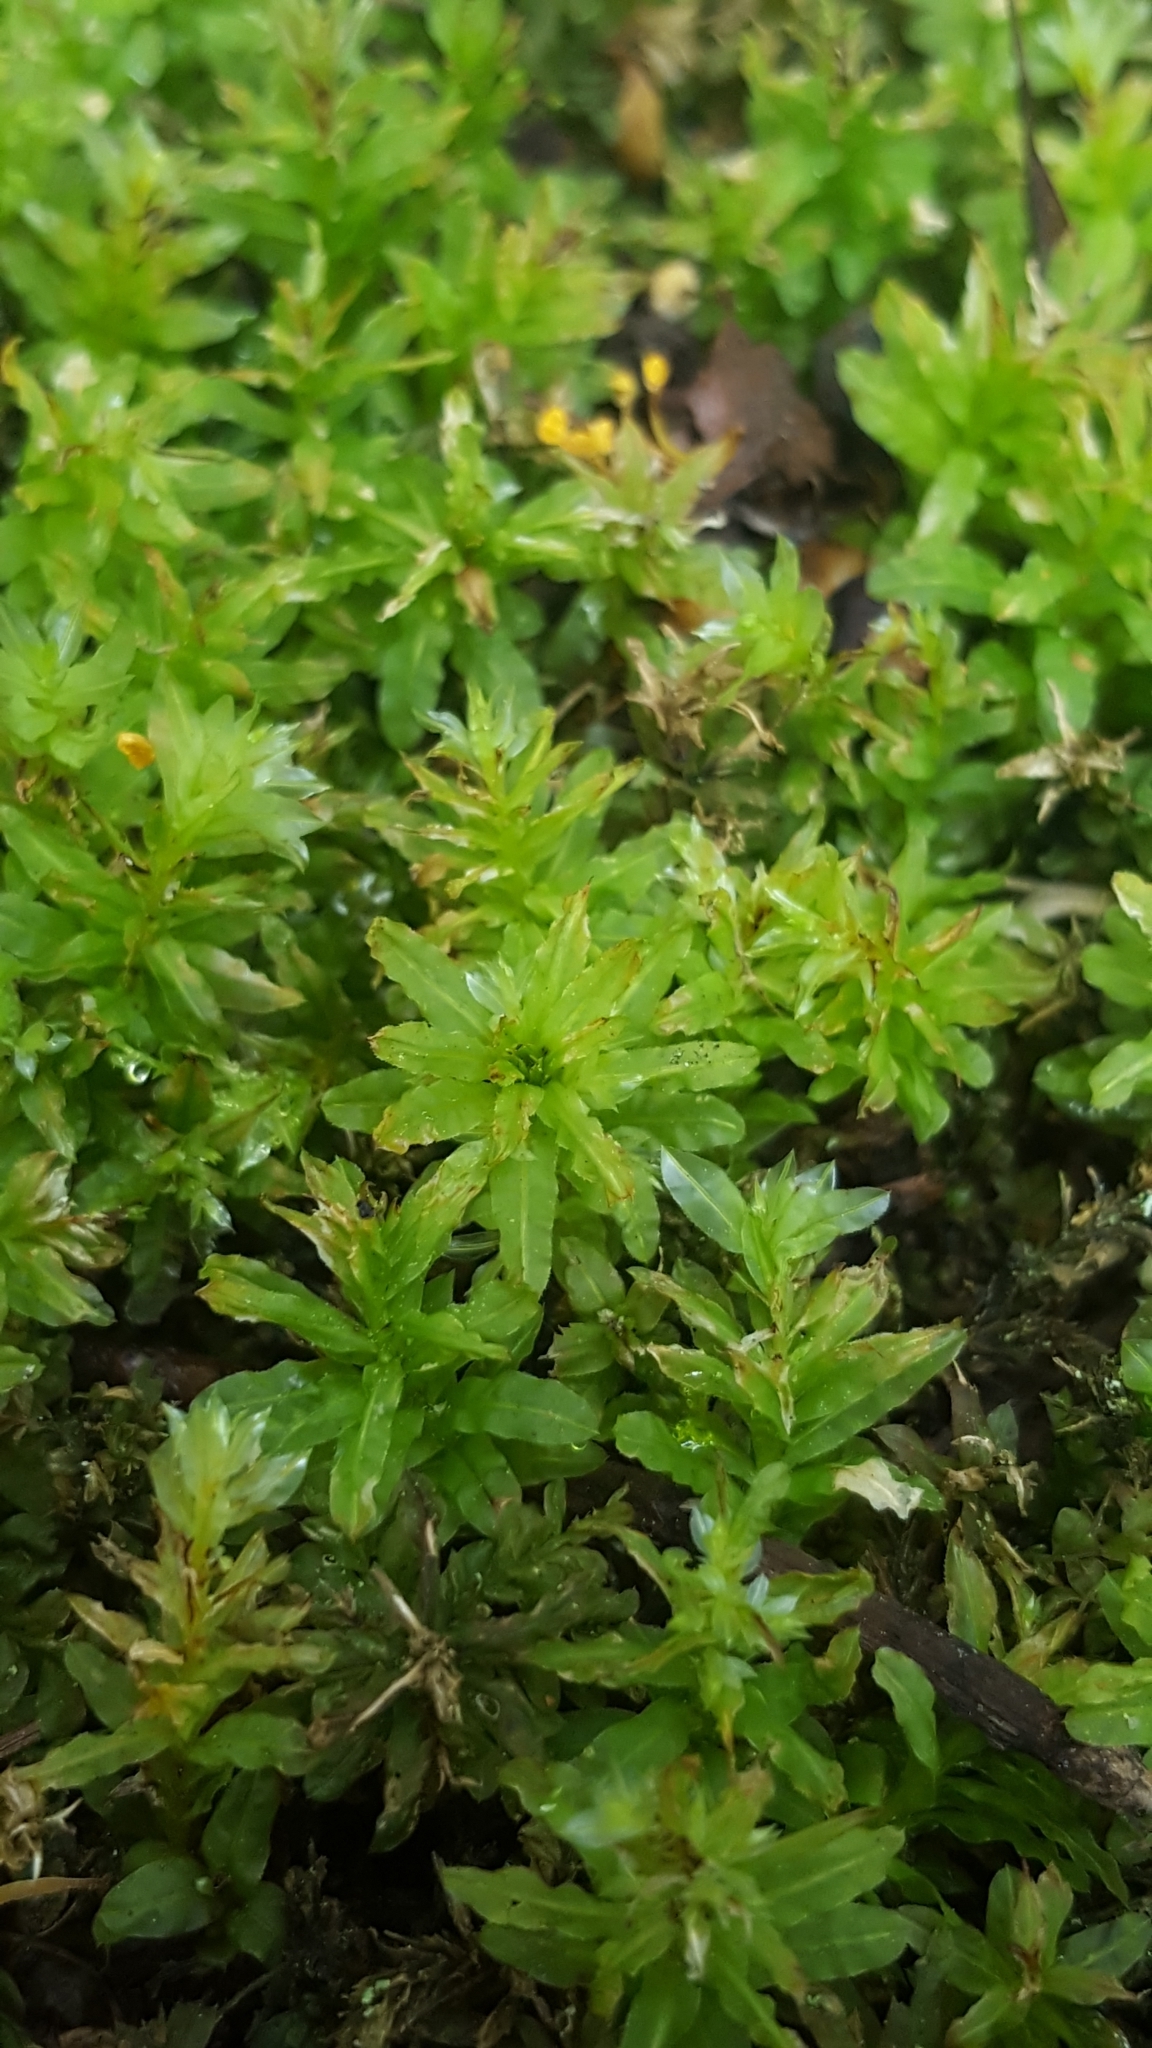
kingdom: Plantae
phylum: Bryophyta
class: Bryopsida
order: Bryales
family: Mniaceae
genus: Plagiomnium
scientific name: Plagiomnium undulatum
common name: Hart's-tongue thyme-moss
